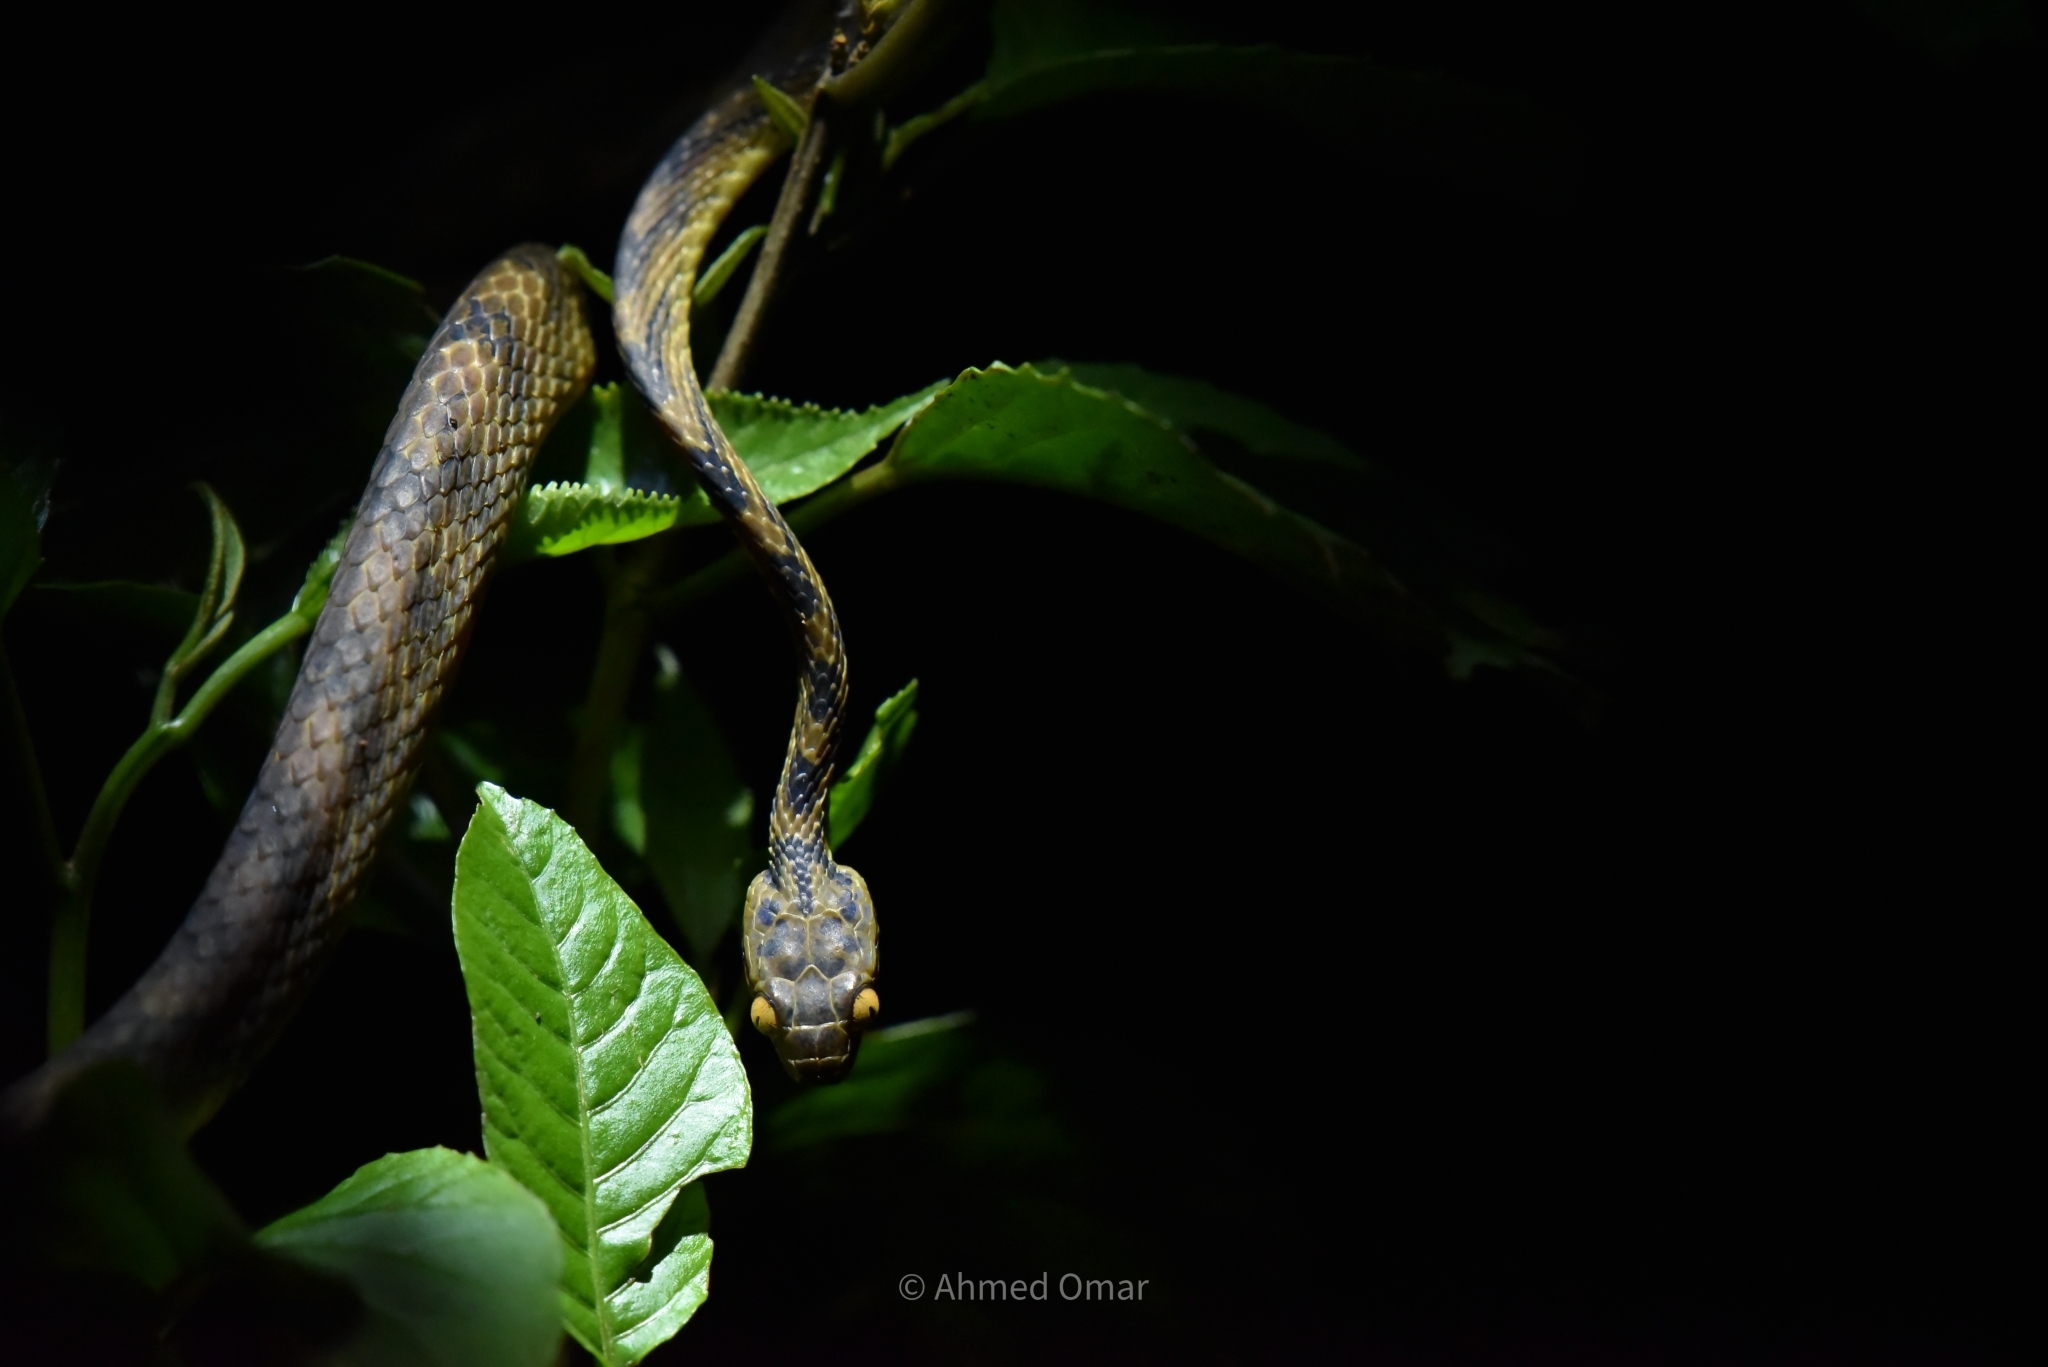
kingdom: Animalia
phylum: Chordata
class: Squamata
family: Colubridae
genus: Boiga
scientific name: Boiga thackerayi
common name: Thackeray’s cat snake
